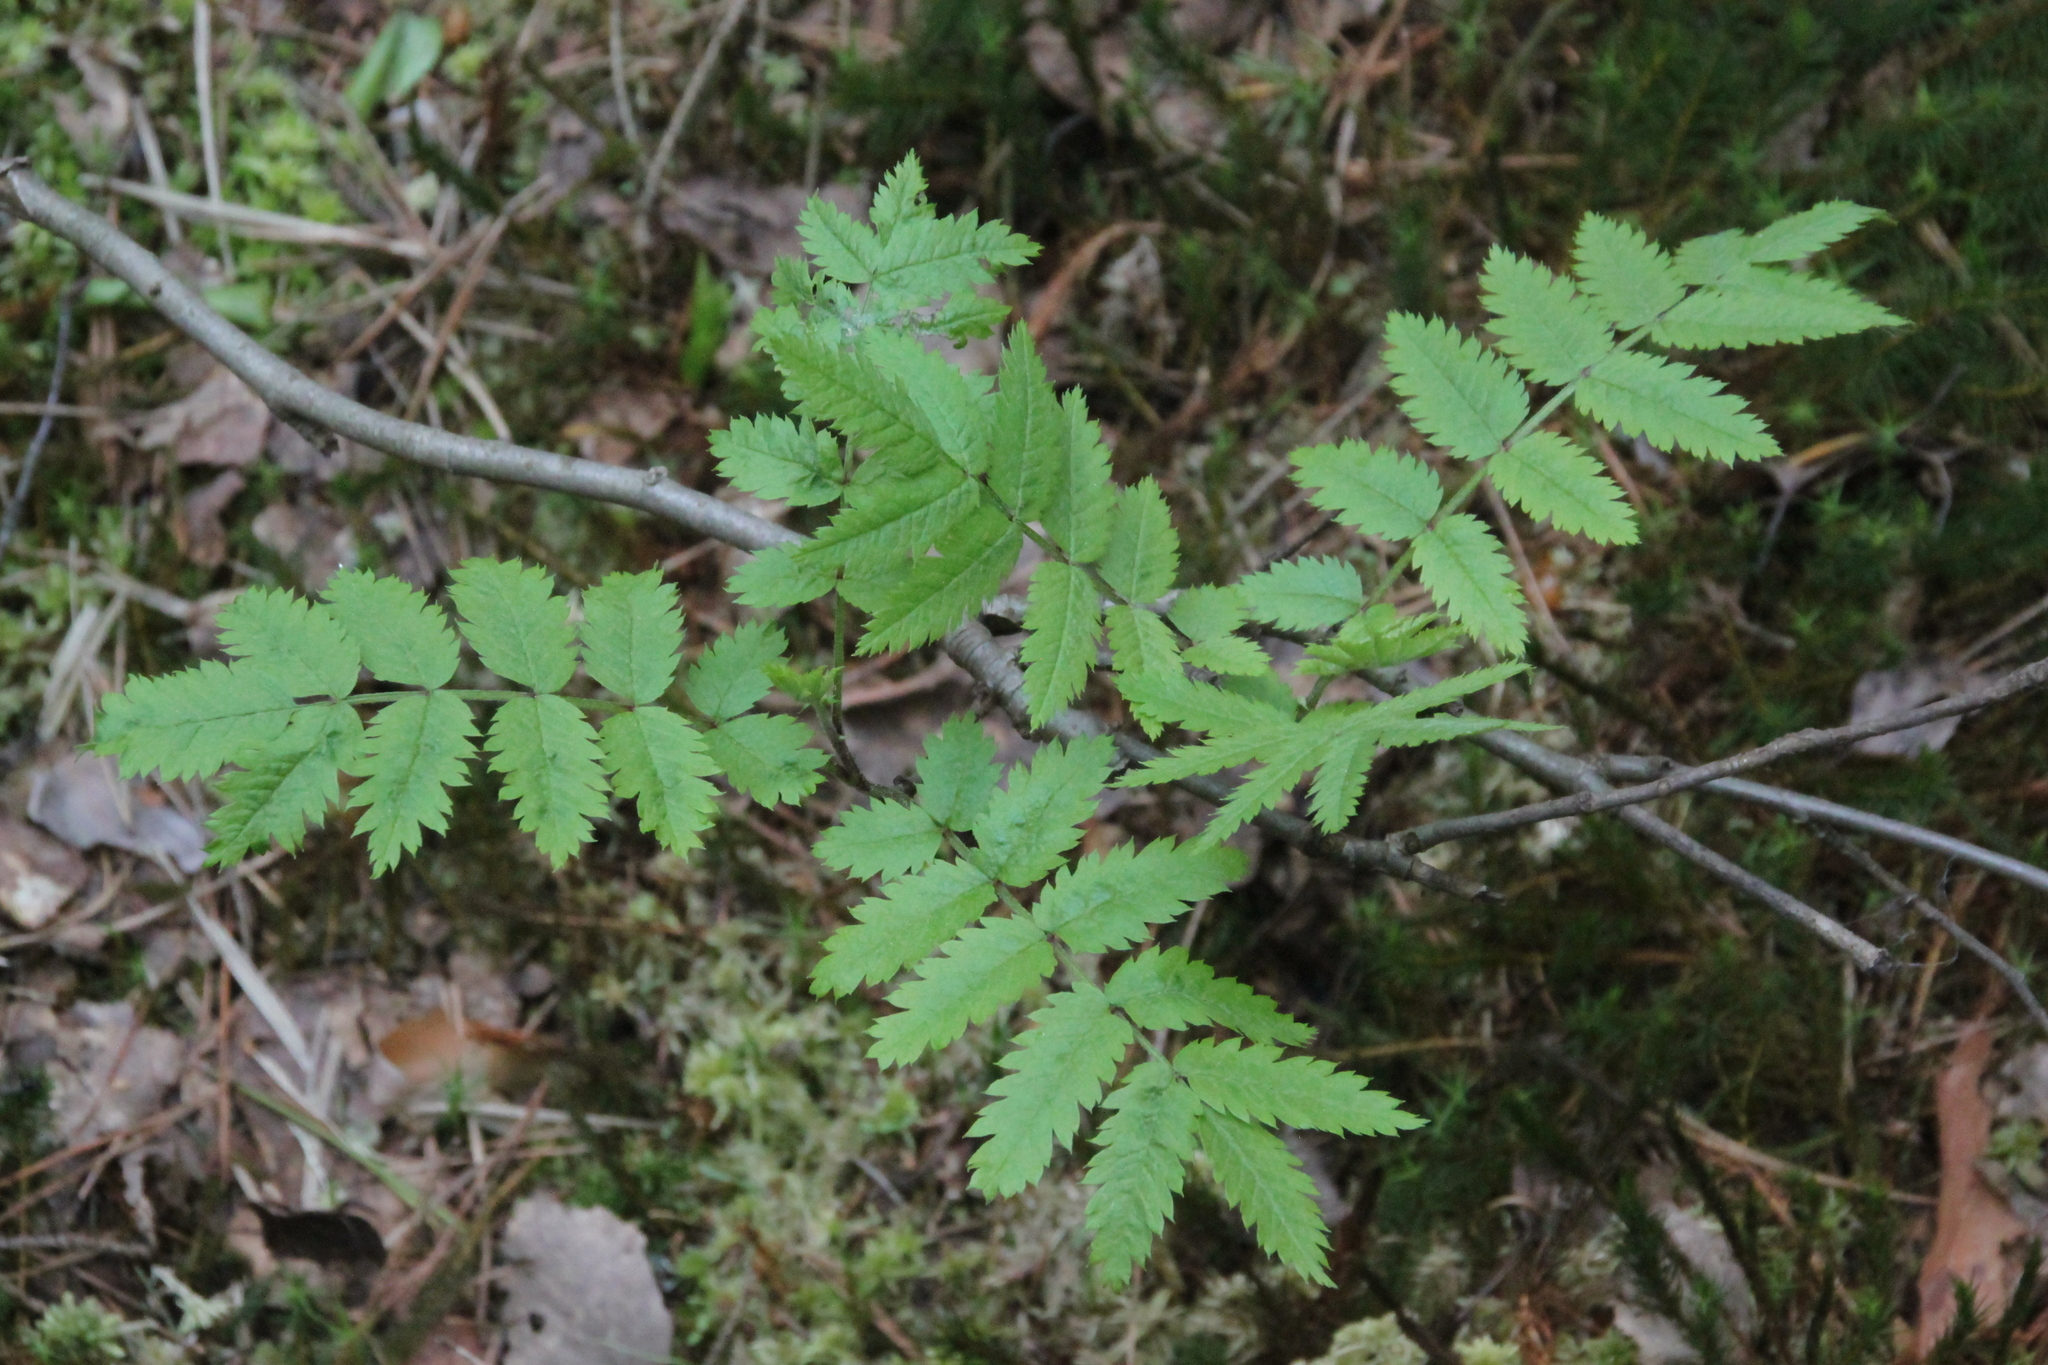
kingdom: Plantae
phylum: Tracheophyta
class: Magnoliopsida
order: Rosales
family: Rosaceae
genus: Sorbus
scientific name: Sorbus aucuparia
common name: Rowan
